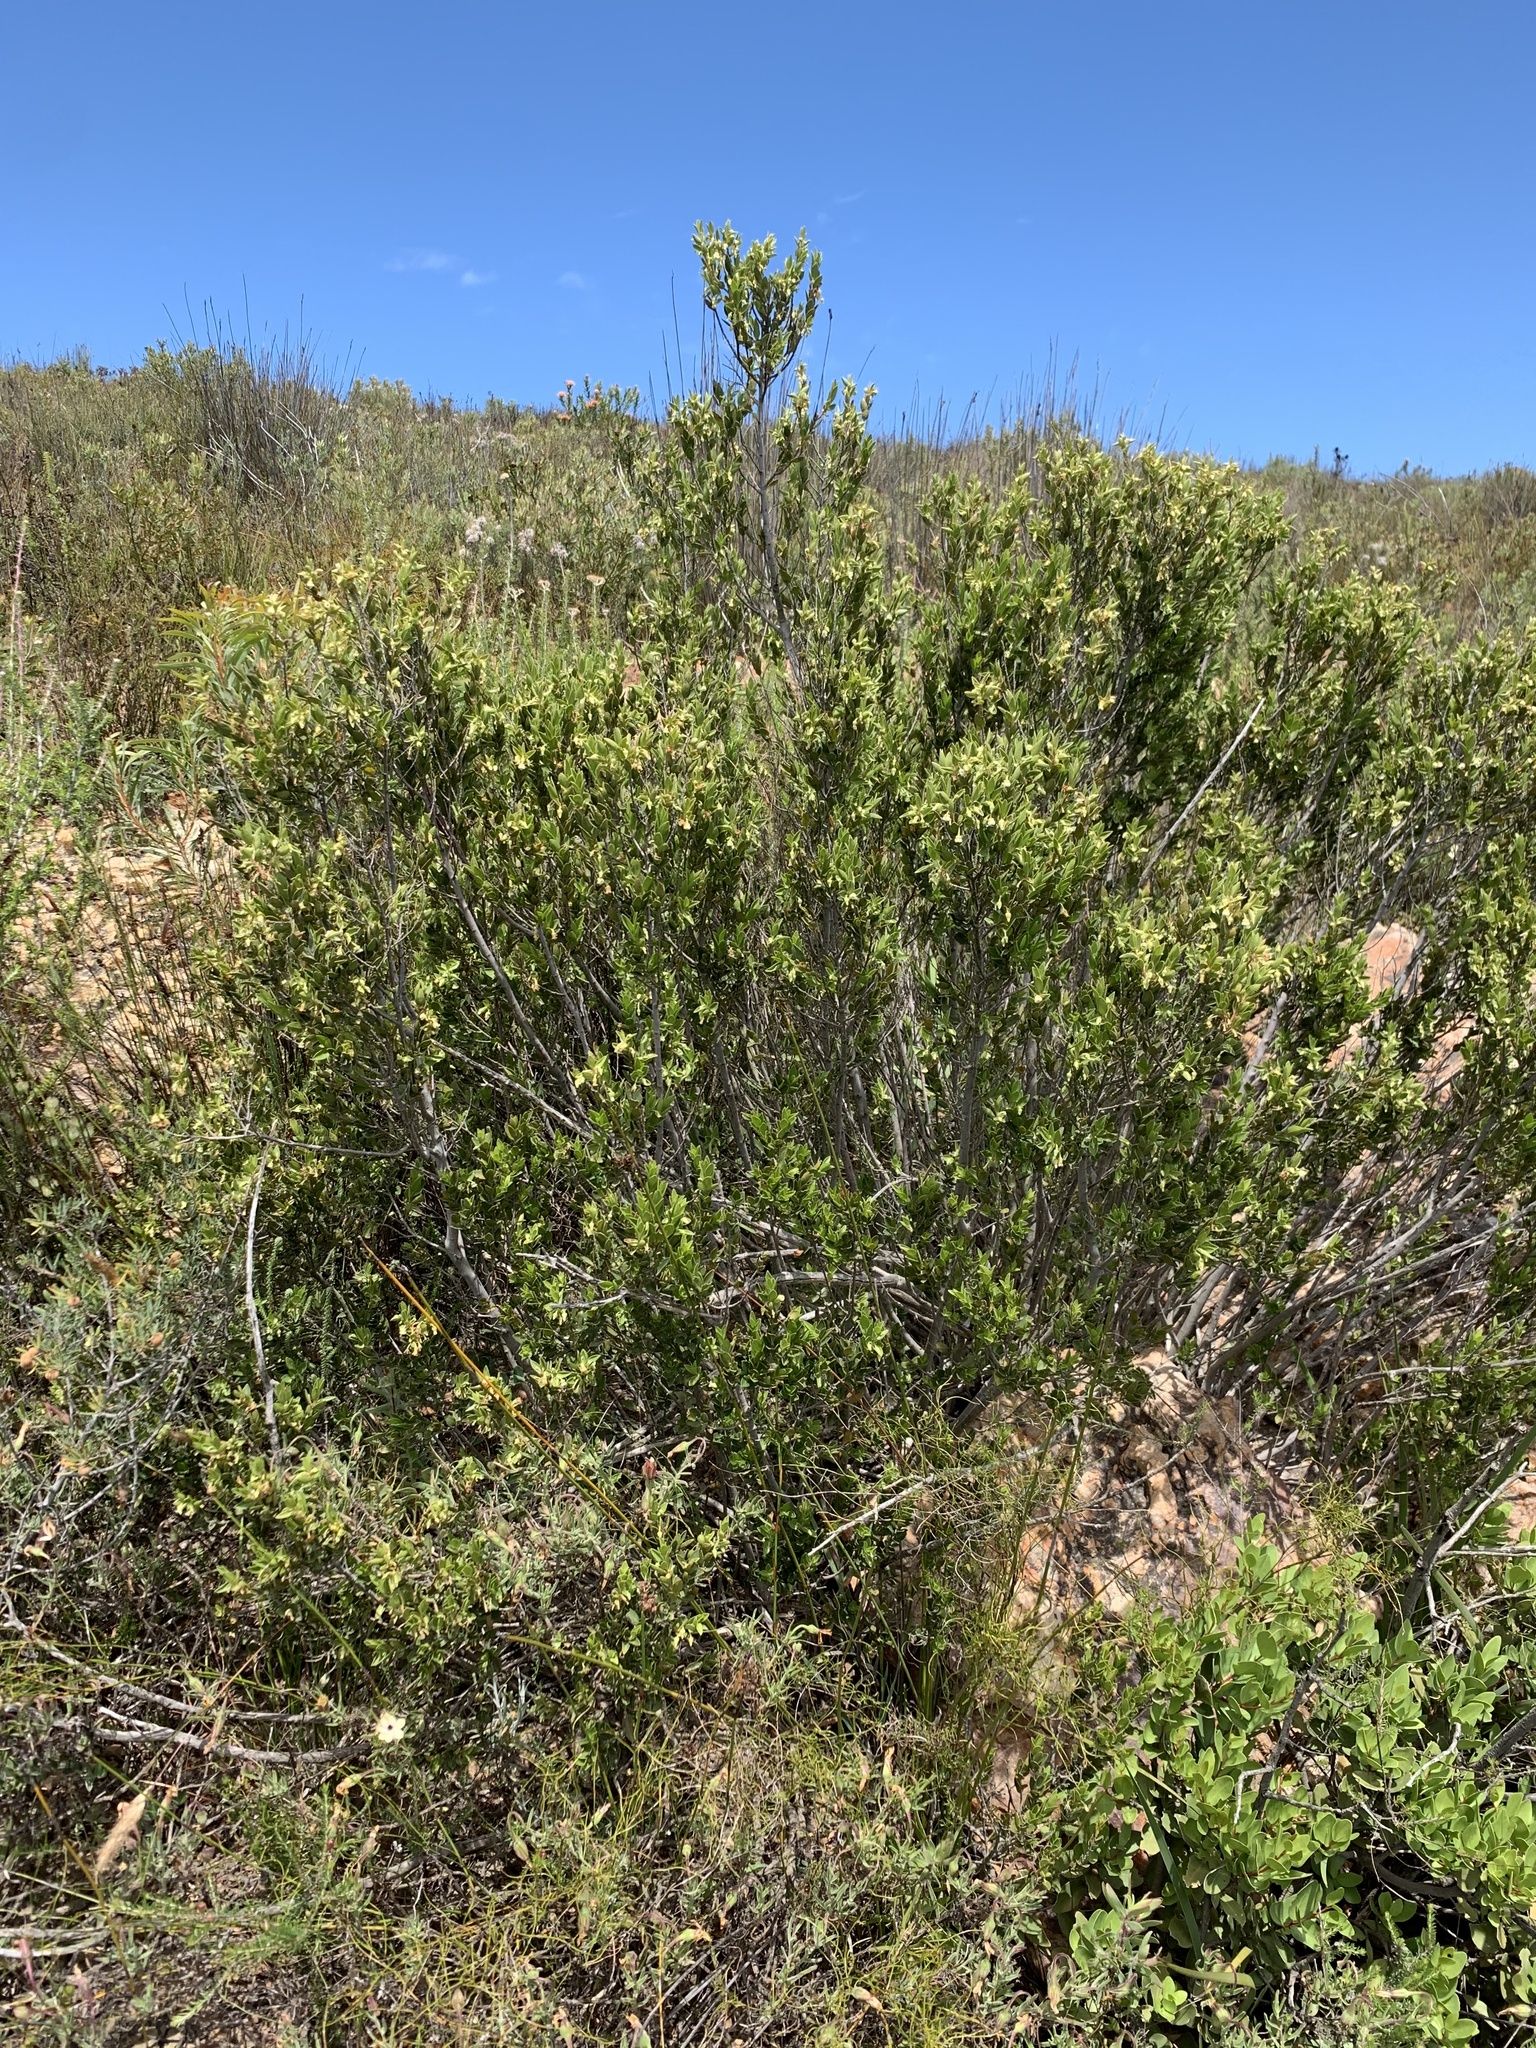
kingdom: Plantae
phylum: Tracheophyta
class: Magnoliopsida
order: Ericales
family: Ebenaceae
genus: Diospyros
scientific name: Diospyros glabra
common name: Fynbos star apple
